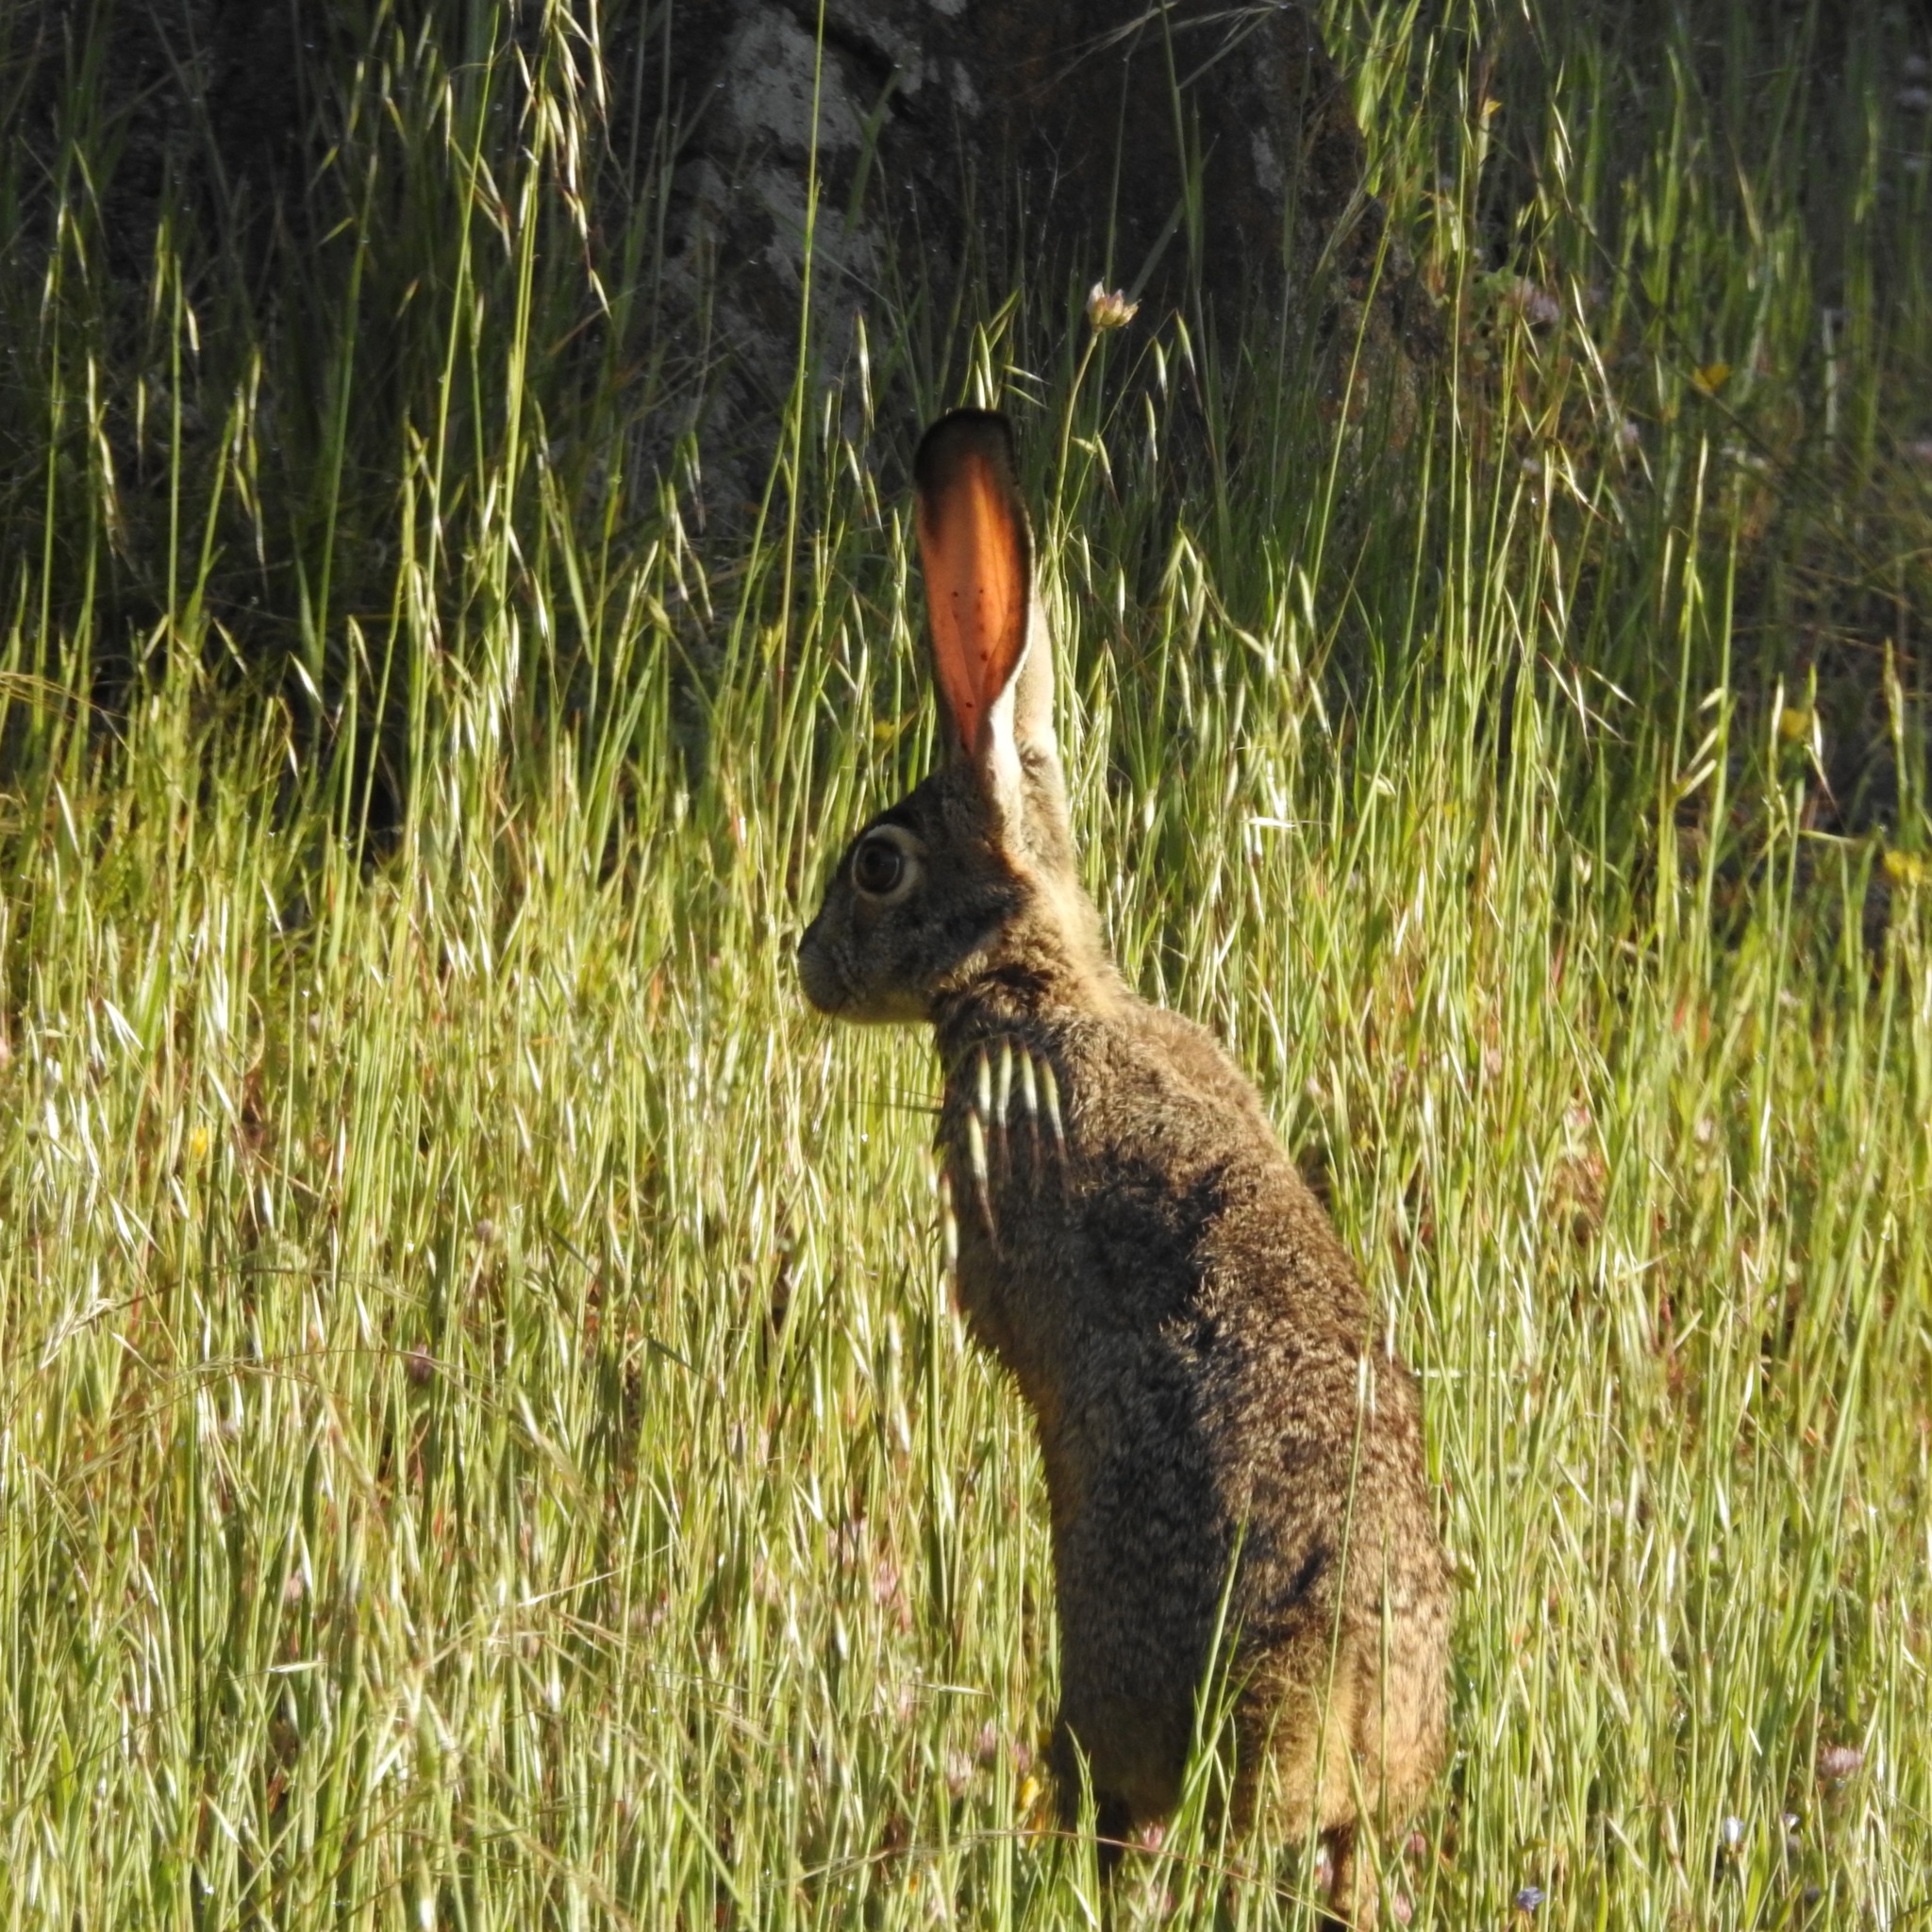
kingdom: Animalia
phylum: Chordata
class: Mammalia
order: Lagomorpha
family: Leporidae
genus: Lepus
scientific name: Lepus californicus
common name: Black-tailed jackrabbit
